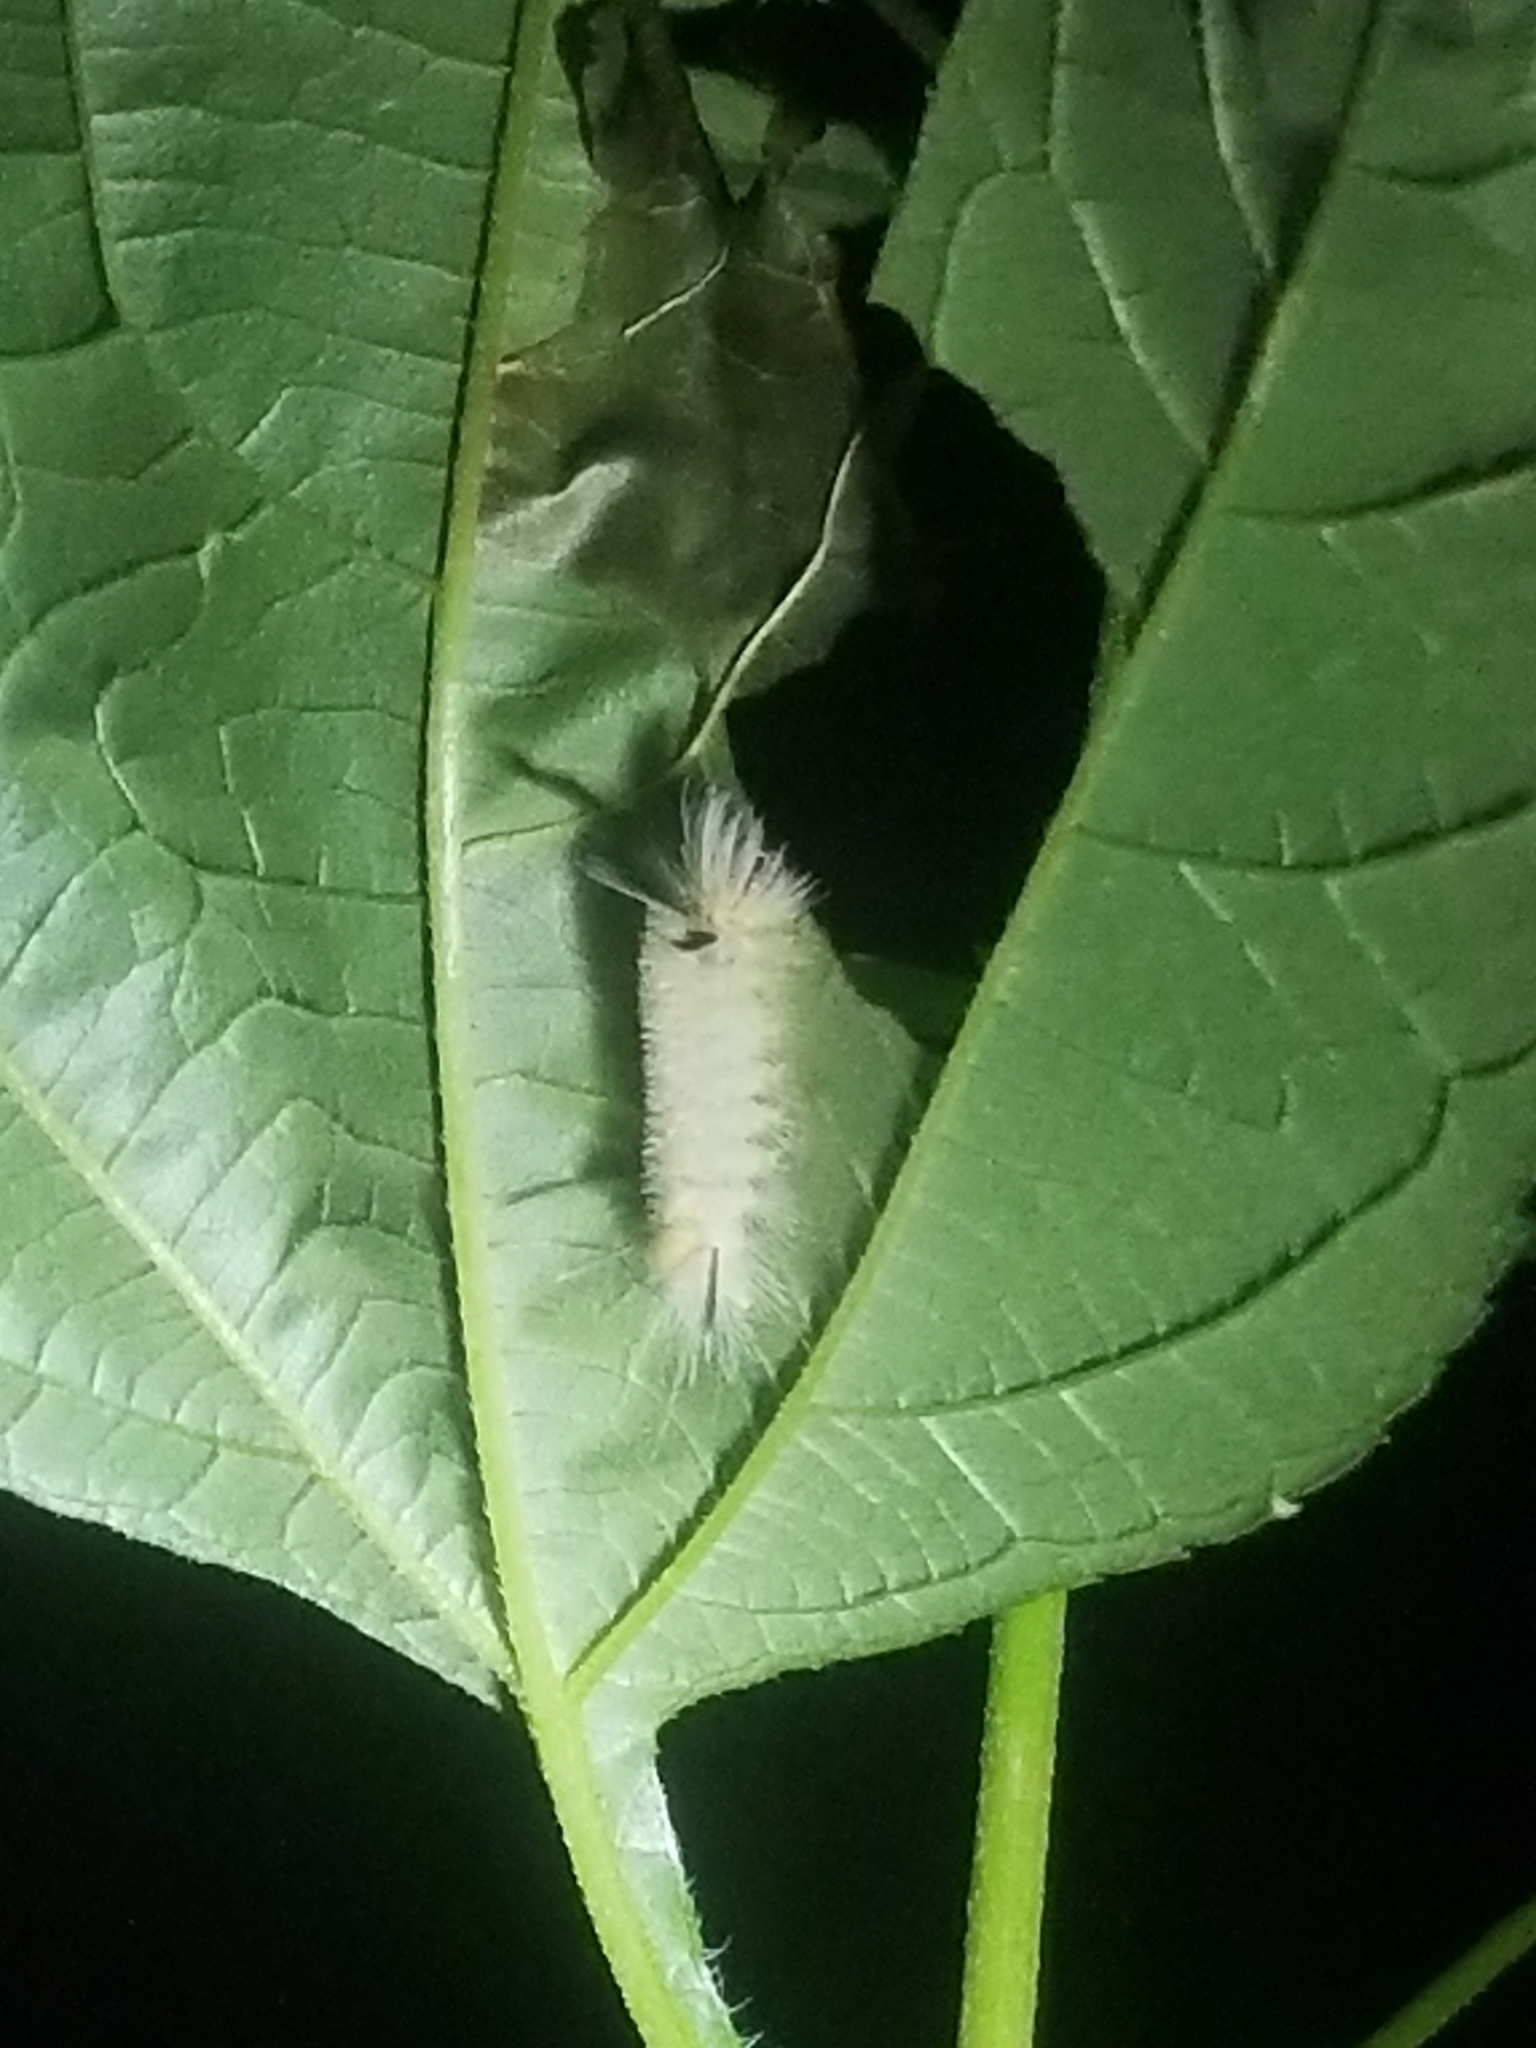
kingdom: Animalia
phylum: Arthropoda
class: Insecta
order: Lepidoptera
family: Erebidae
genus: Halysidota
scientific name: Halysidota tessellaris
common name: Banded tussock moth
